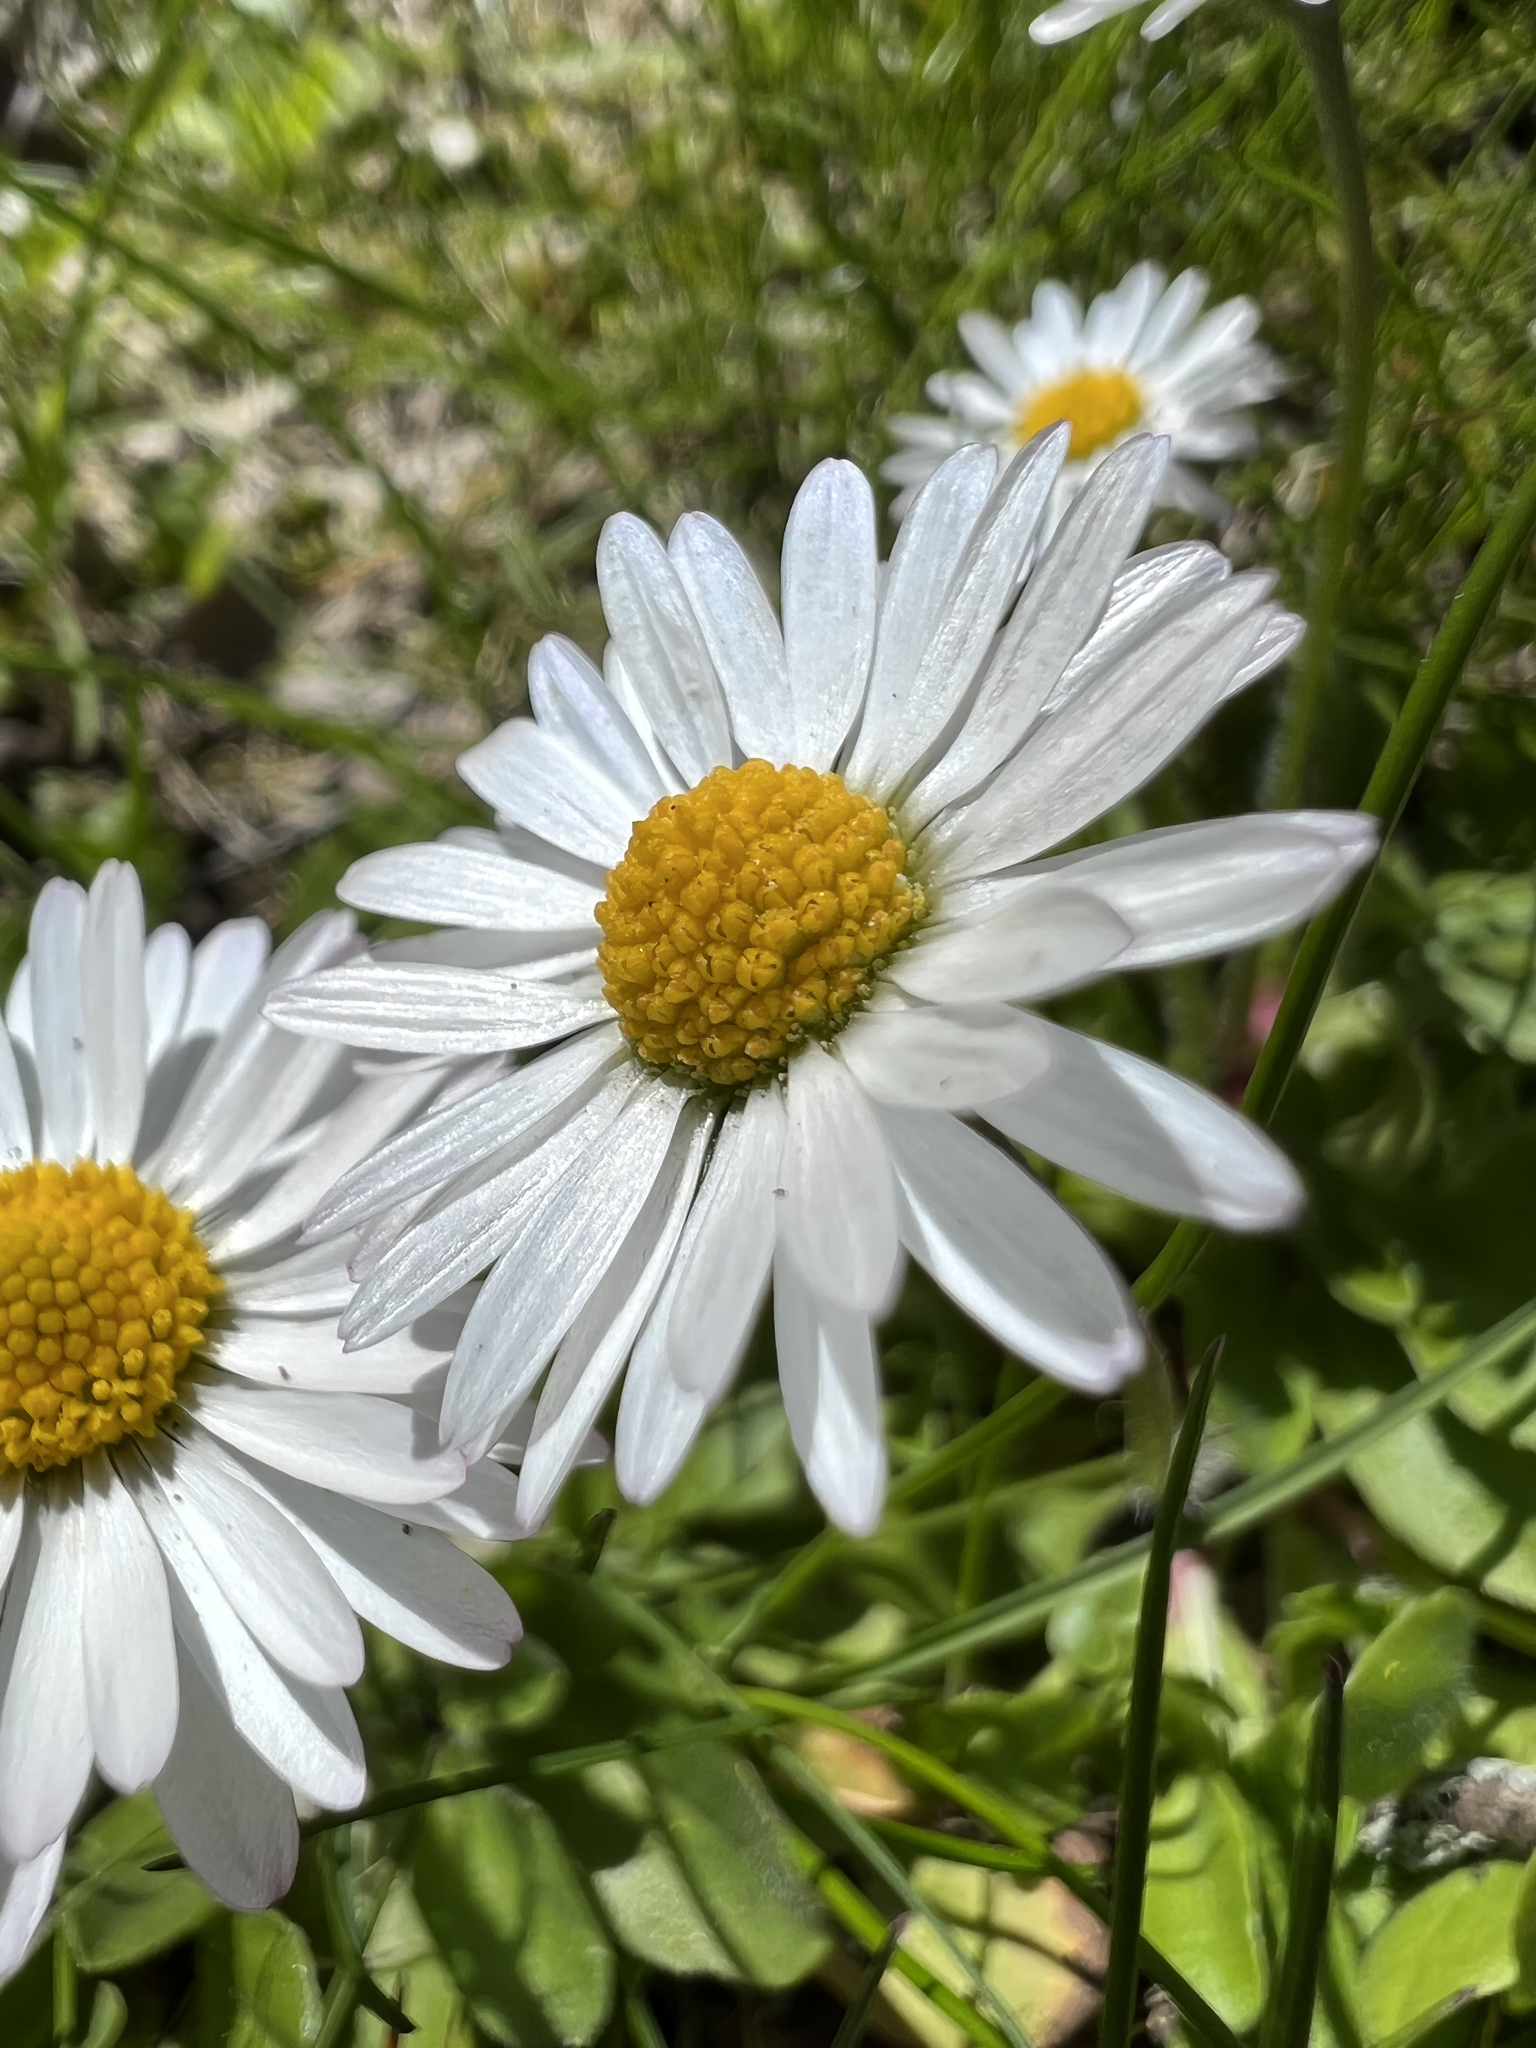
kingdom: Plantae
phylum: Tracheophyta
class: Magnoliopsida
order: Asterales
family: Asteraceae
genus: Bellis
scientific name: Bellis perennis
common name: Lawndaisy
